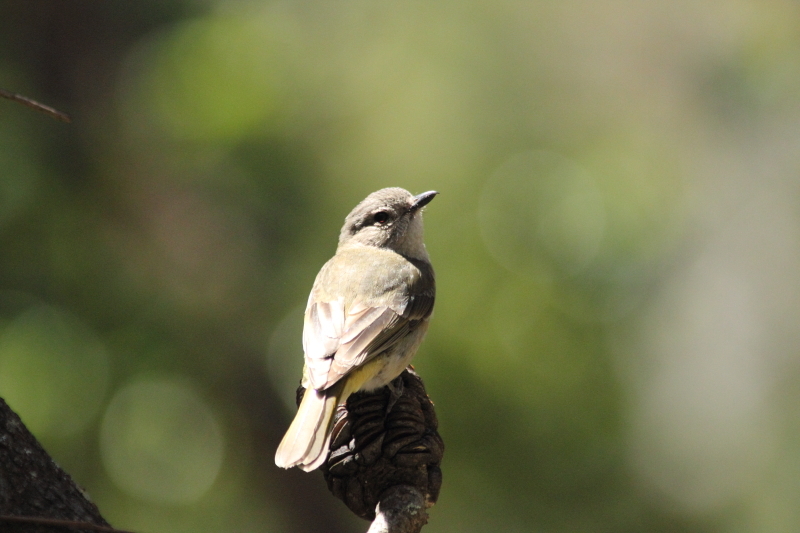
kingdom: Animalia
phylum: Chordata
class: Aves
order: Passeriformes
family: Pachycephalidae
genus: Pachycephala
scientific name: Pachycephala pectoralis
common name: Australian golden whistler
